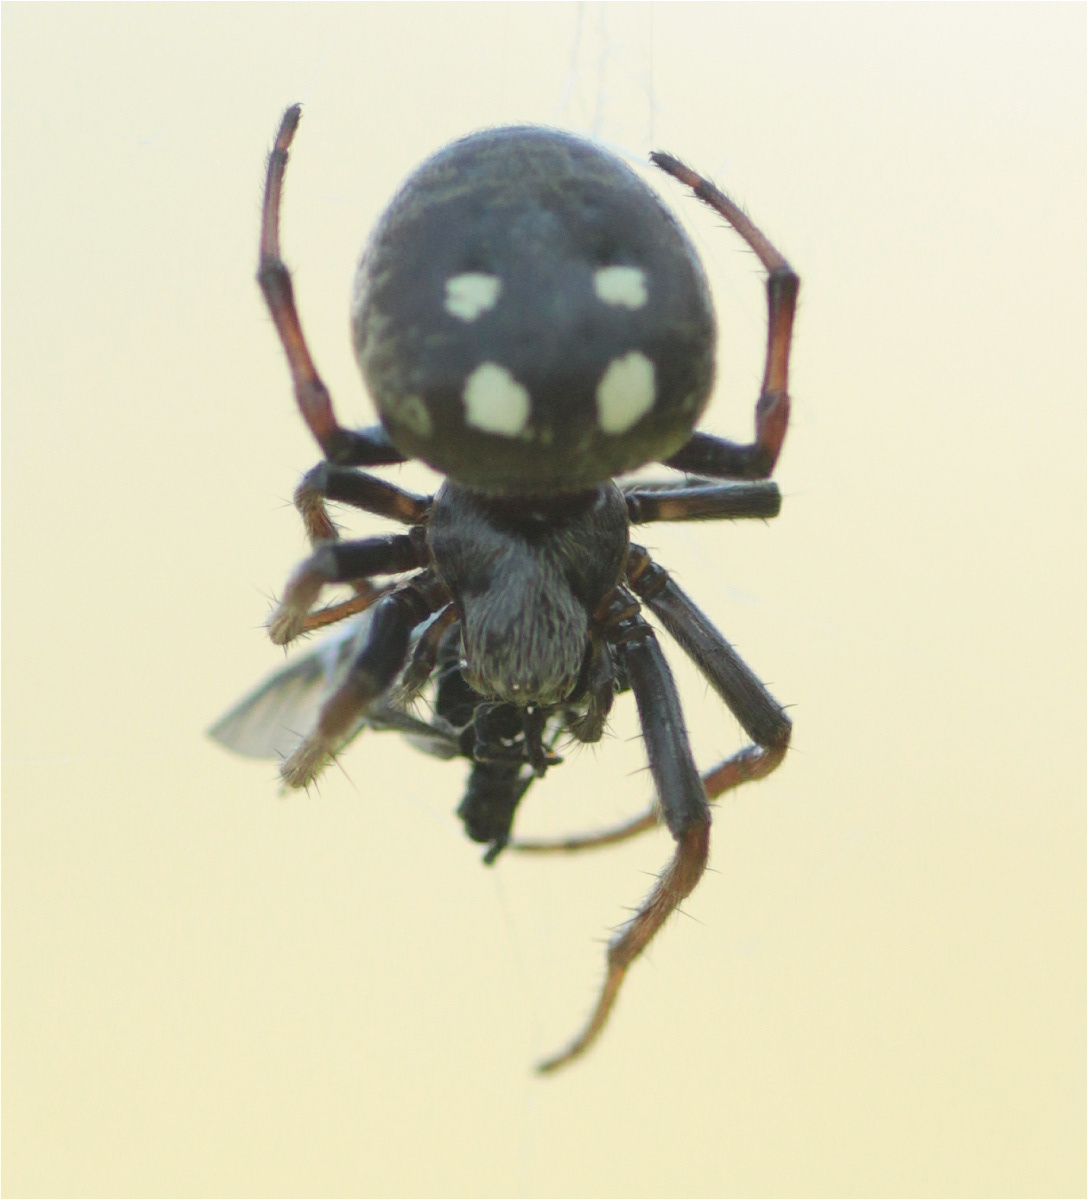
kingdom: Animalia
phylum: Arthropoda
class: Arachnida
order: Araneae
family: Araneidae
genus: Araneus
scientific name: Araneus granadensis
